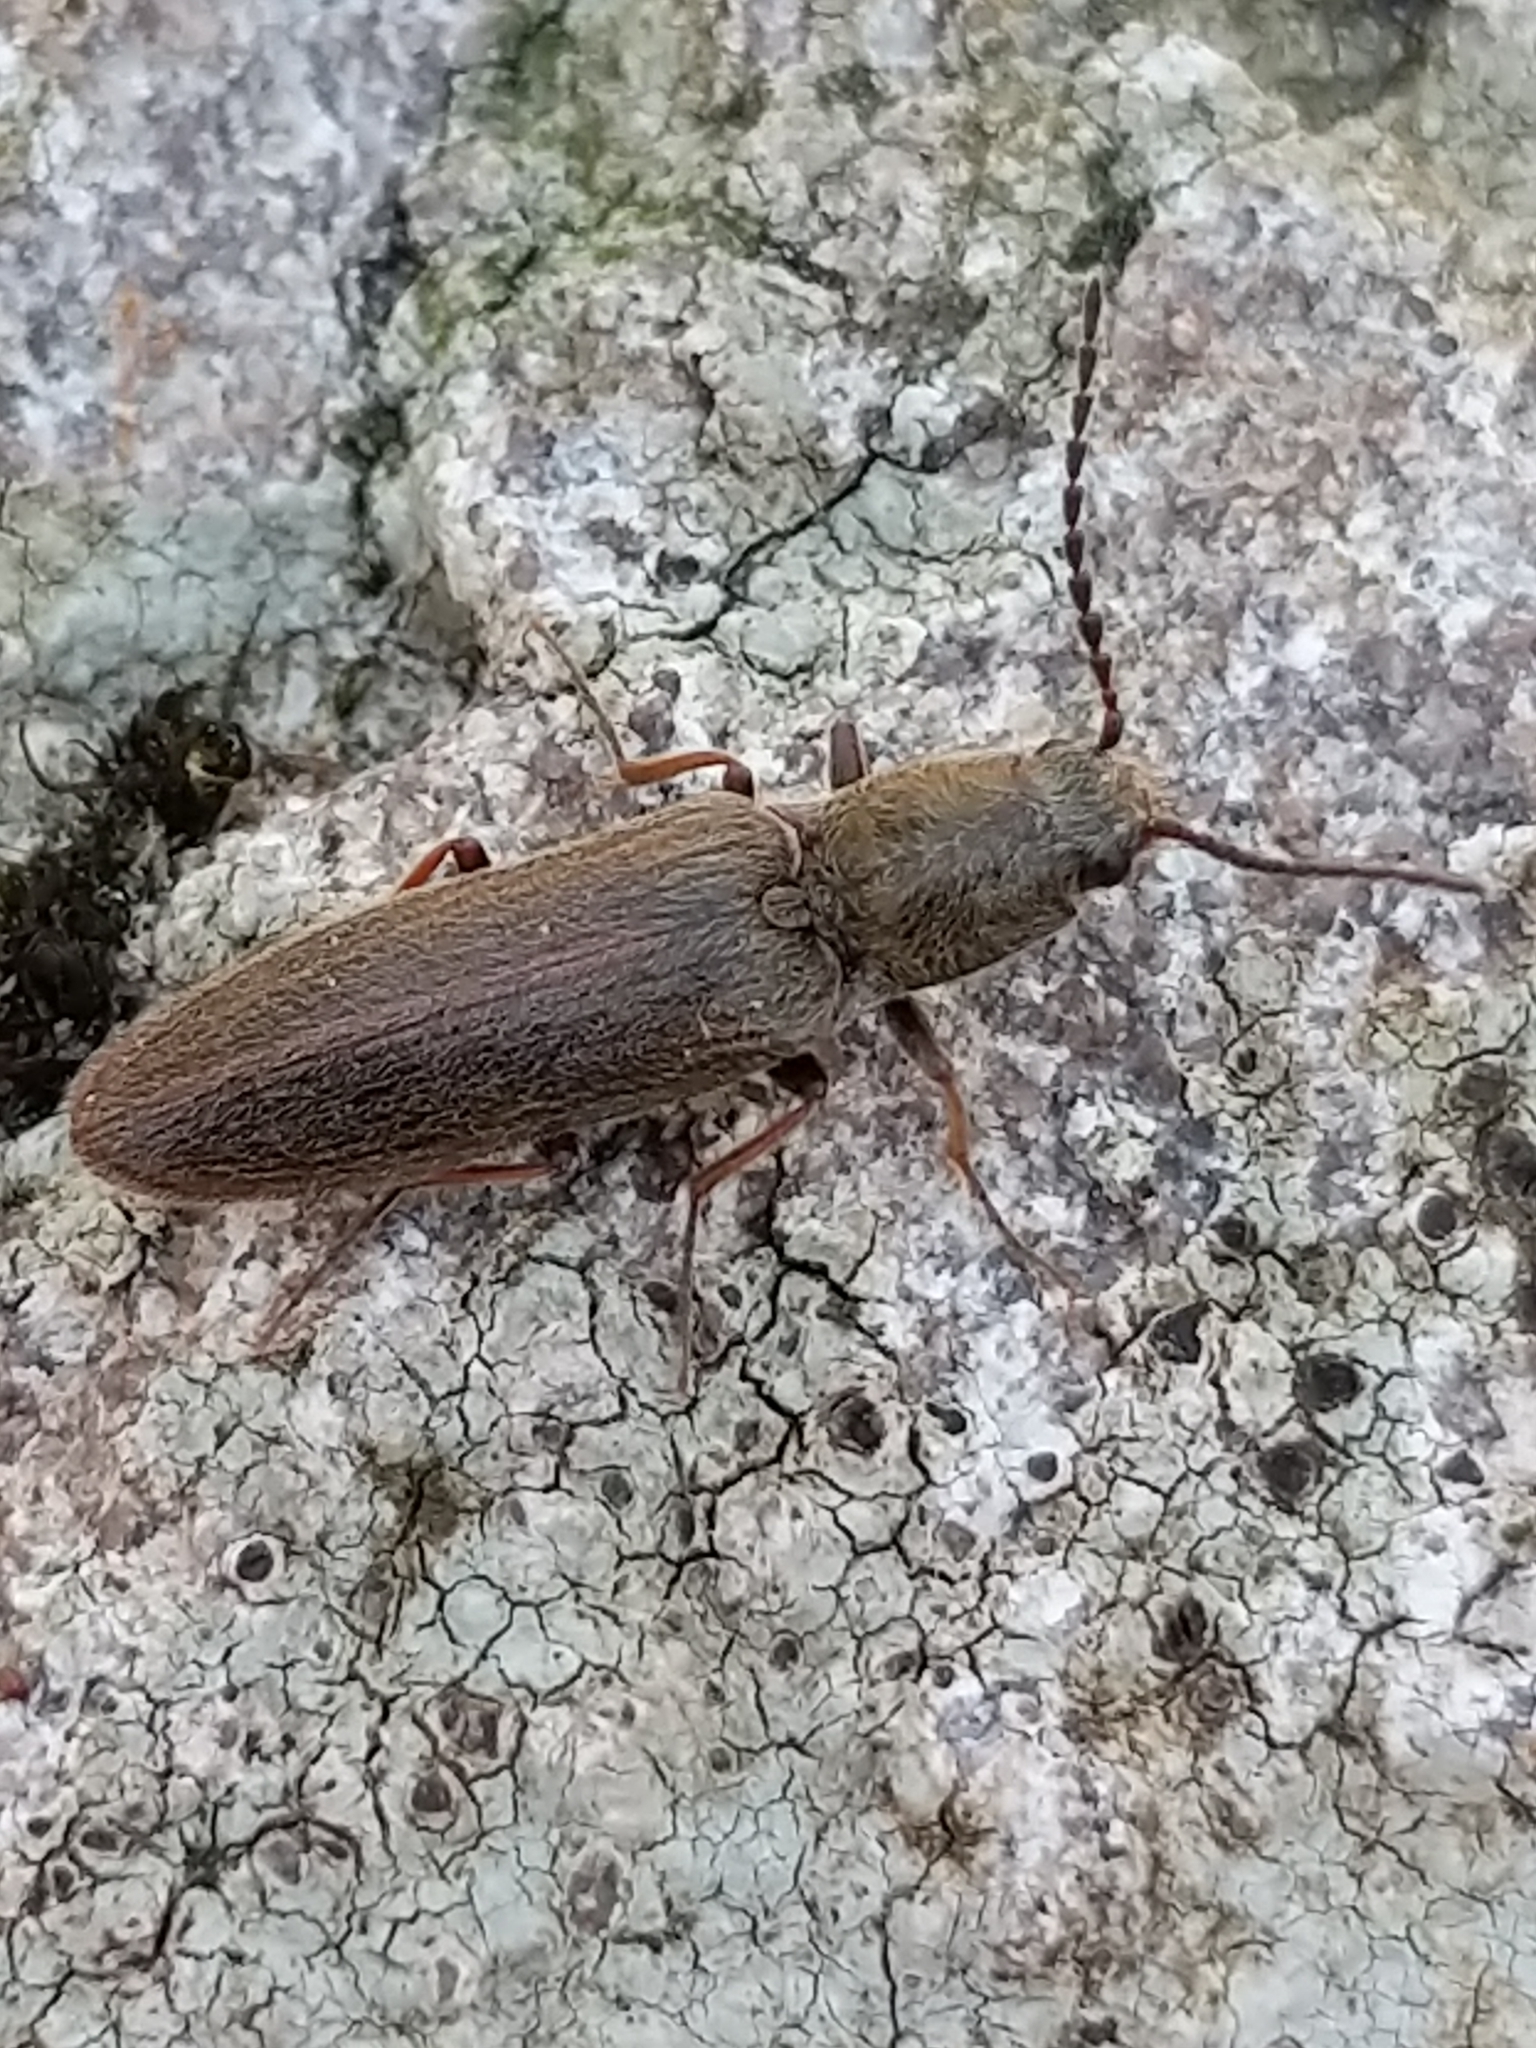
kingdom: Animalia
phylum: Arthropoda
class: Insecta
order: Coleoptera
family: Elateridae
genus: Sylvanelater
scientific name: Sylvanelater cylindriformis
